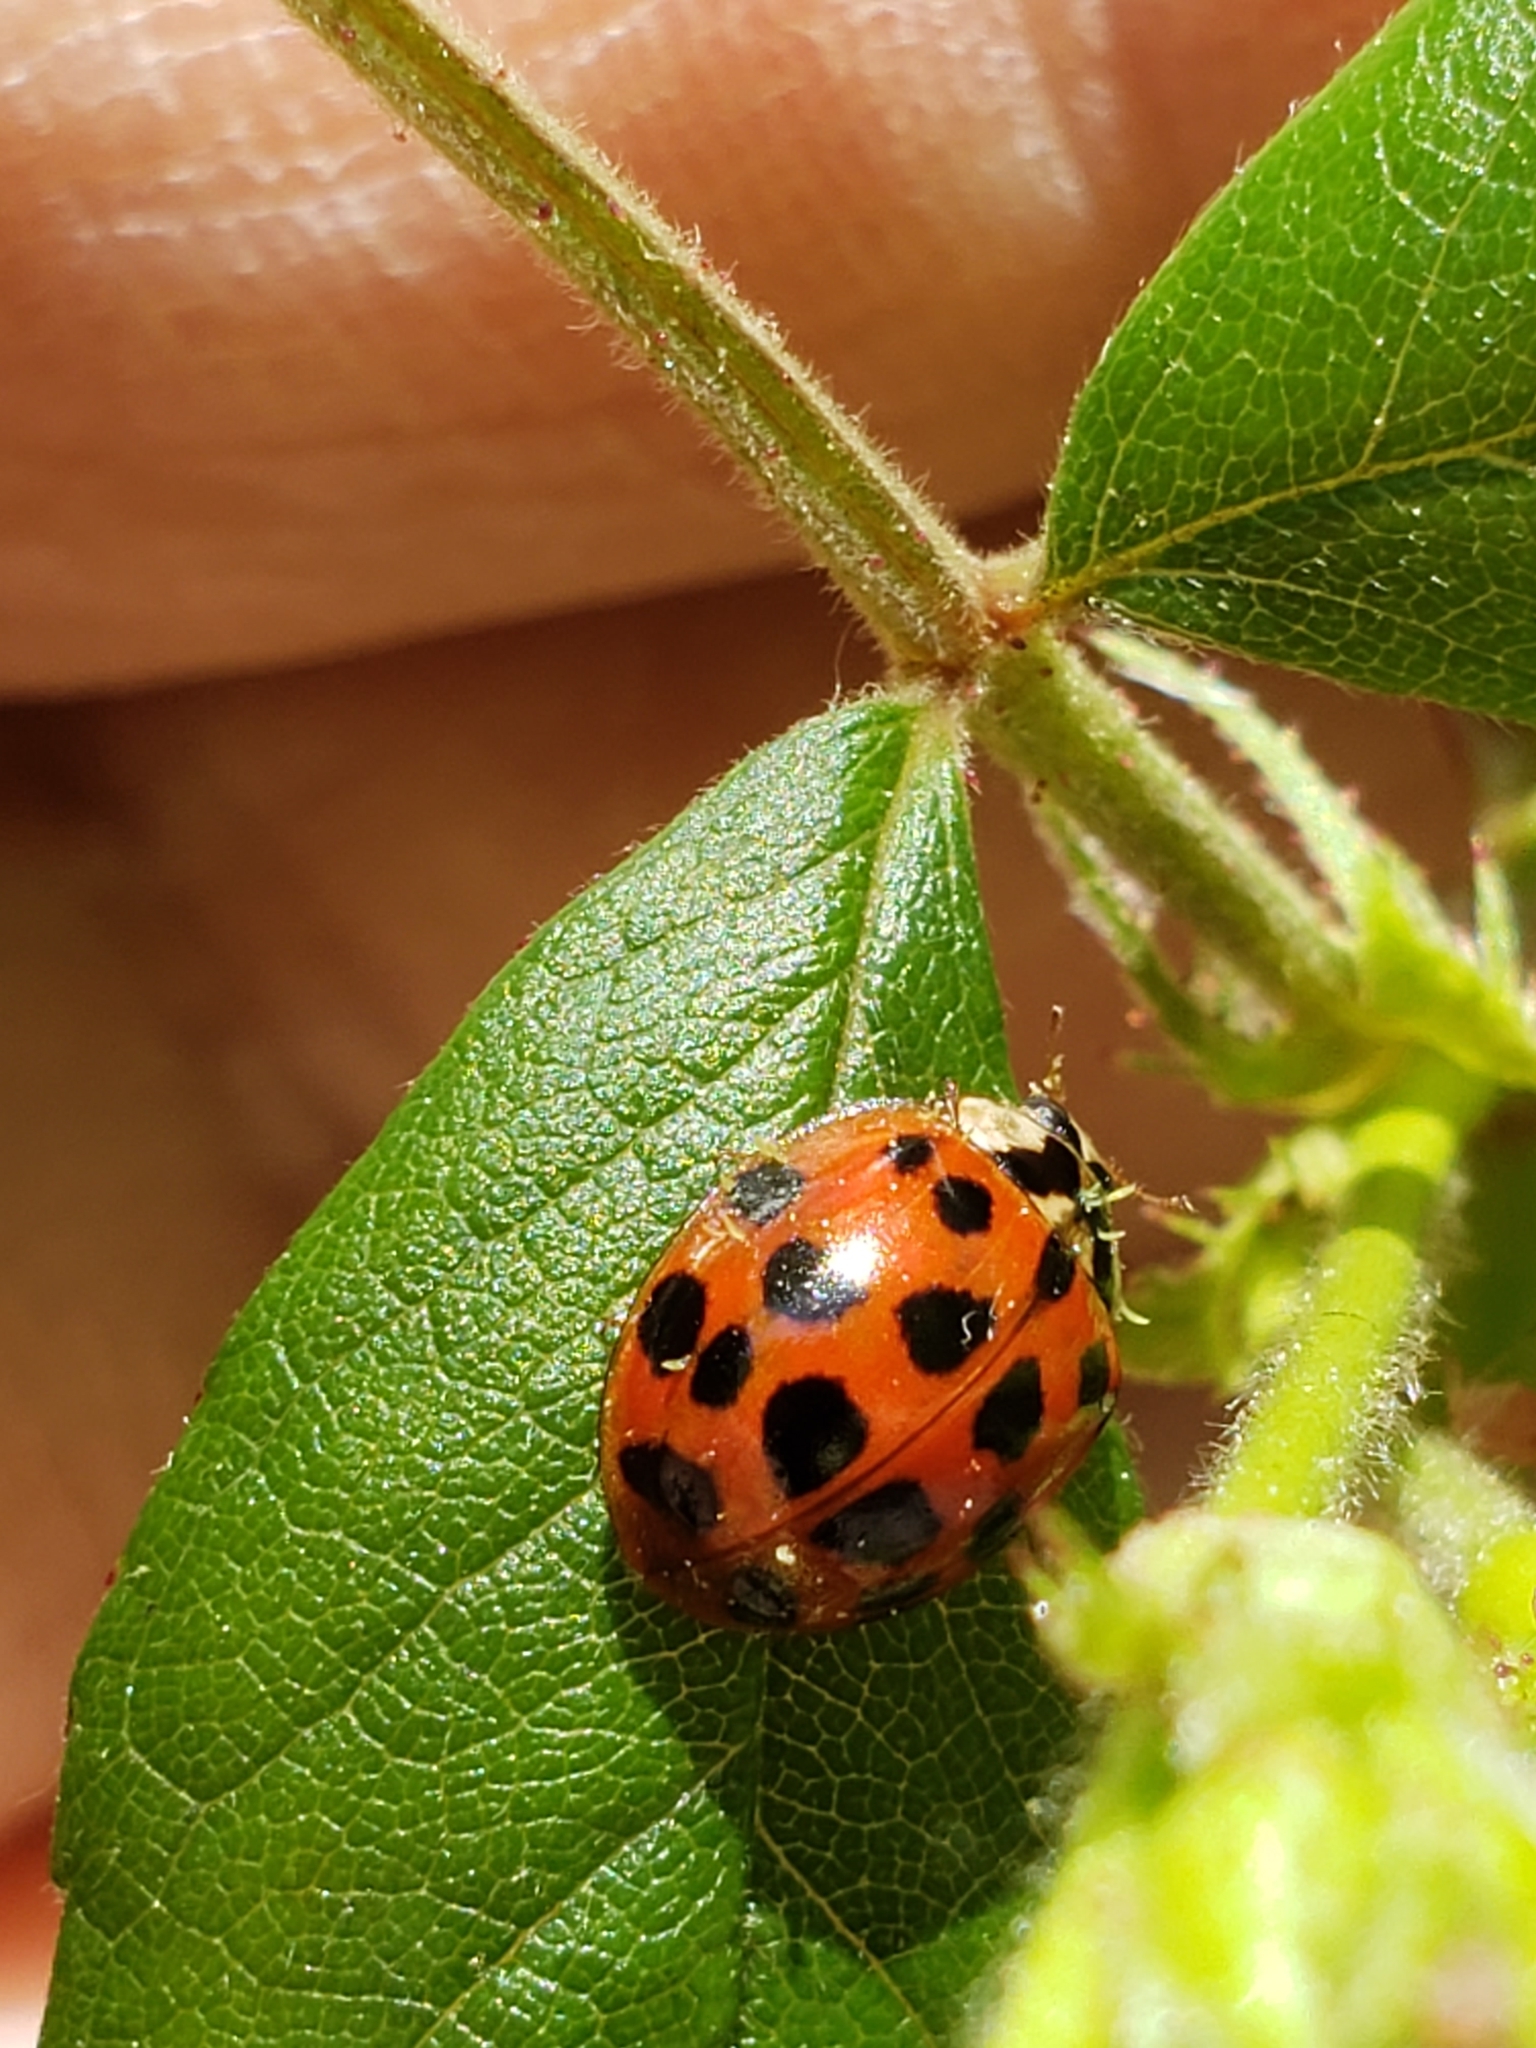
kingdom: Animalia
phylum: Arthropoda
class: Insecta
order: Coleoptera
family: Coccinellidae
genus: Harmonia
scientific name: Harmonia axyridis
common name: Harlequin ladybird
